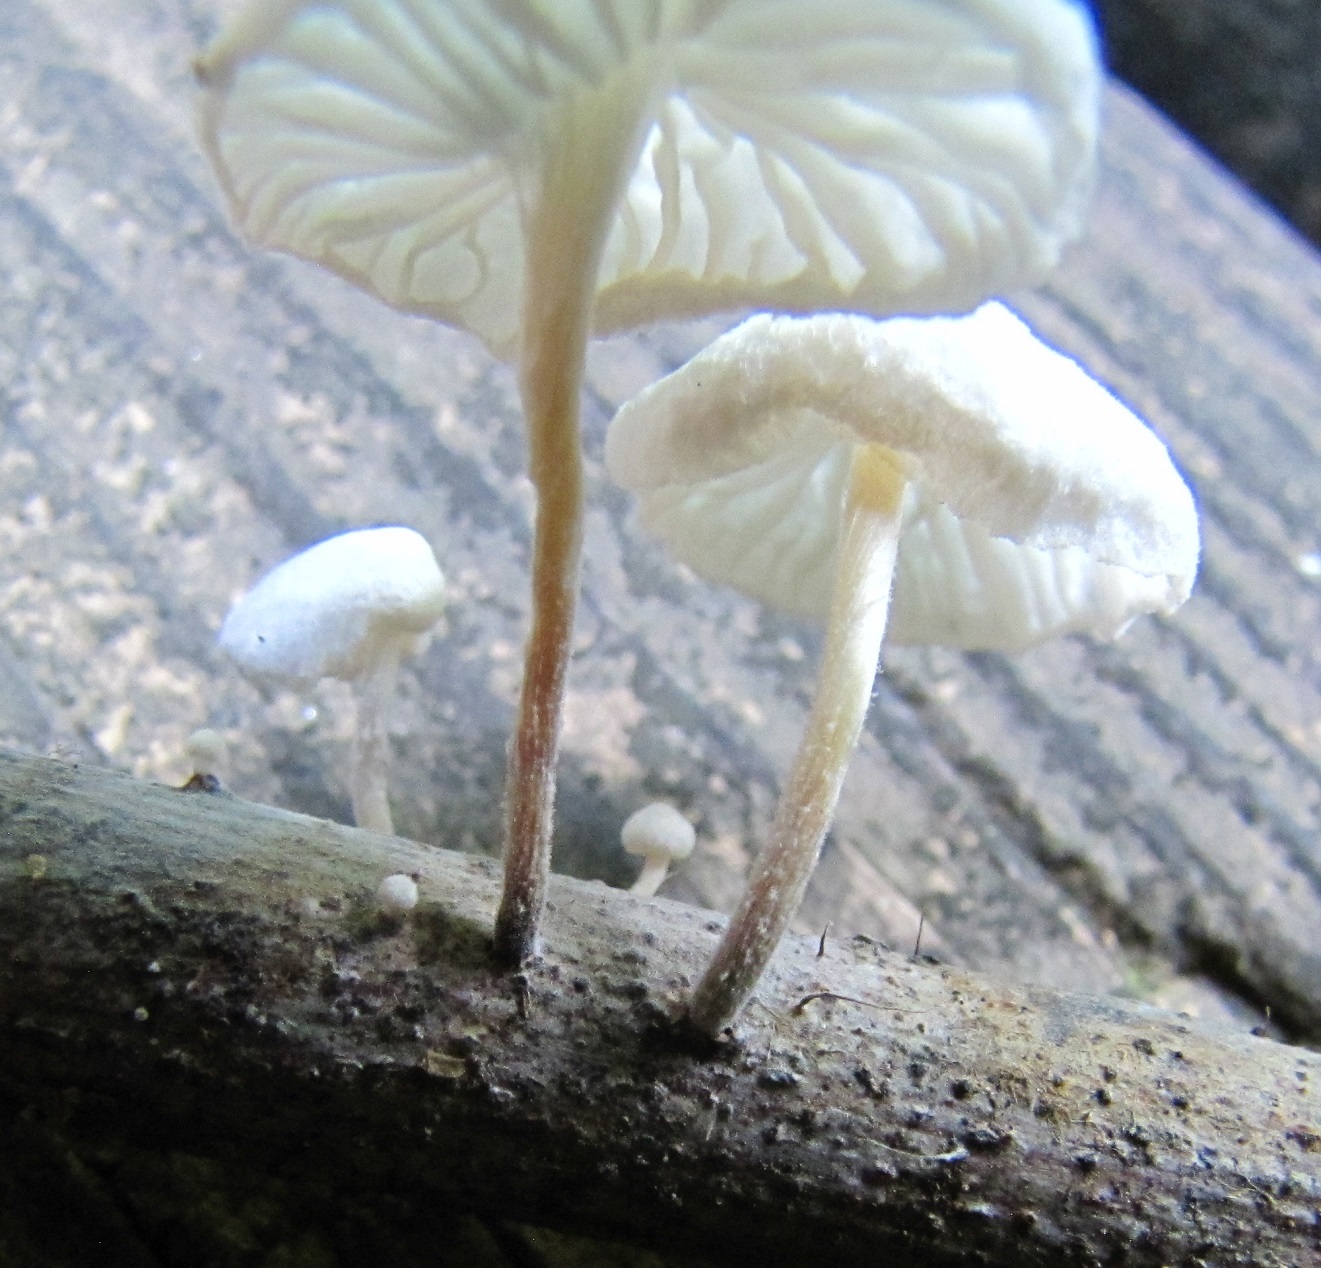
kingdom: Fungi
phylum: Basidiomycota
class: Agaricomycetes
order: Agaricales
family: Marasmiaceae
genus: Tetrapyrgos
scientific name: Tetrapyrgos nigripes
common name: Black-stalked marasmius
